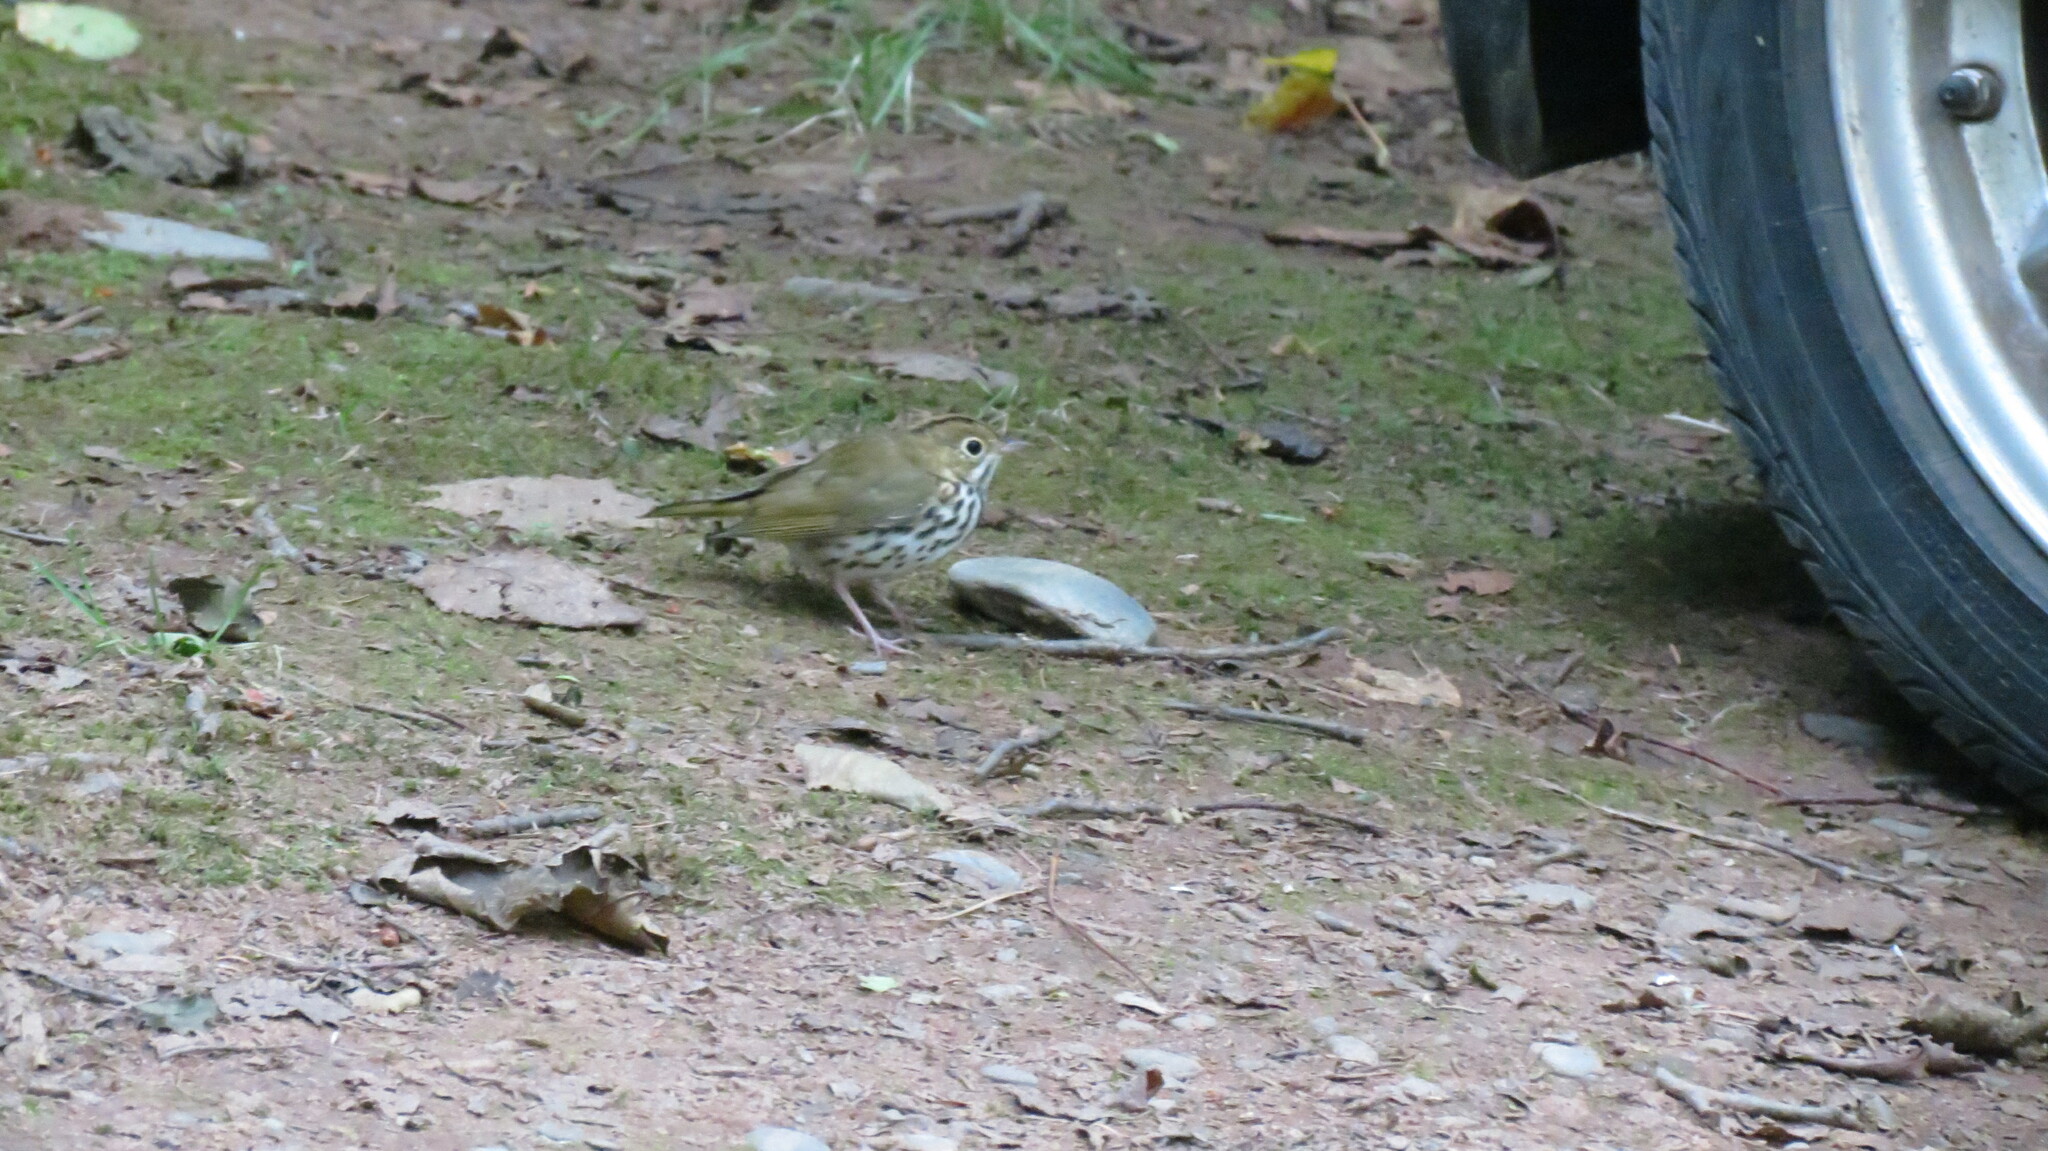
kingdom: Animalia
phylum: Chordata
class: Aves
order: Passeriformes
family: Parulidae
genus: Seiurus
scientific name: Seiurus aurocapilla
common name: Ovenbird
